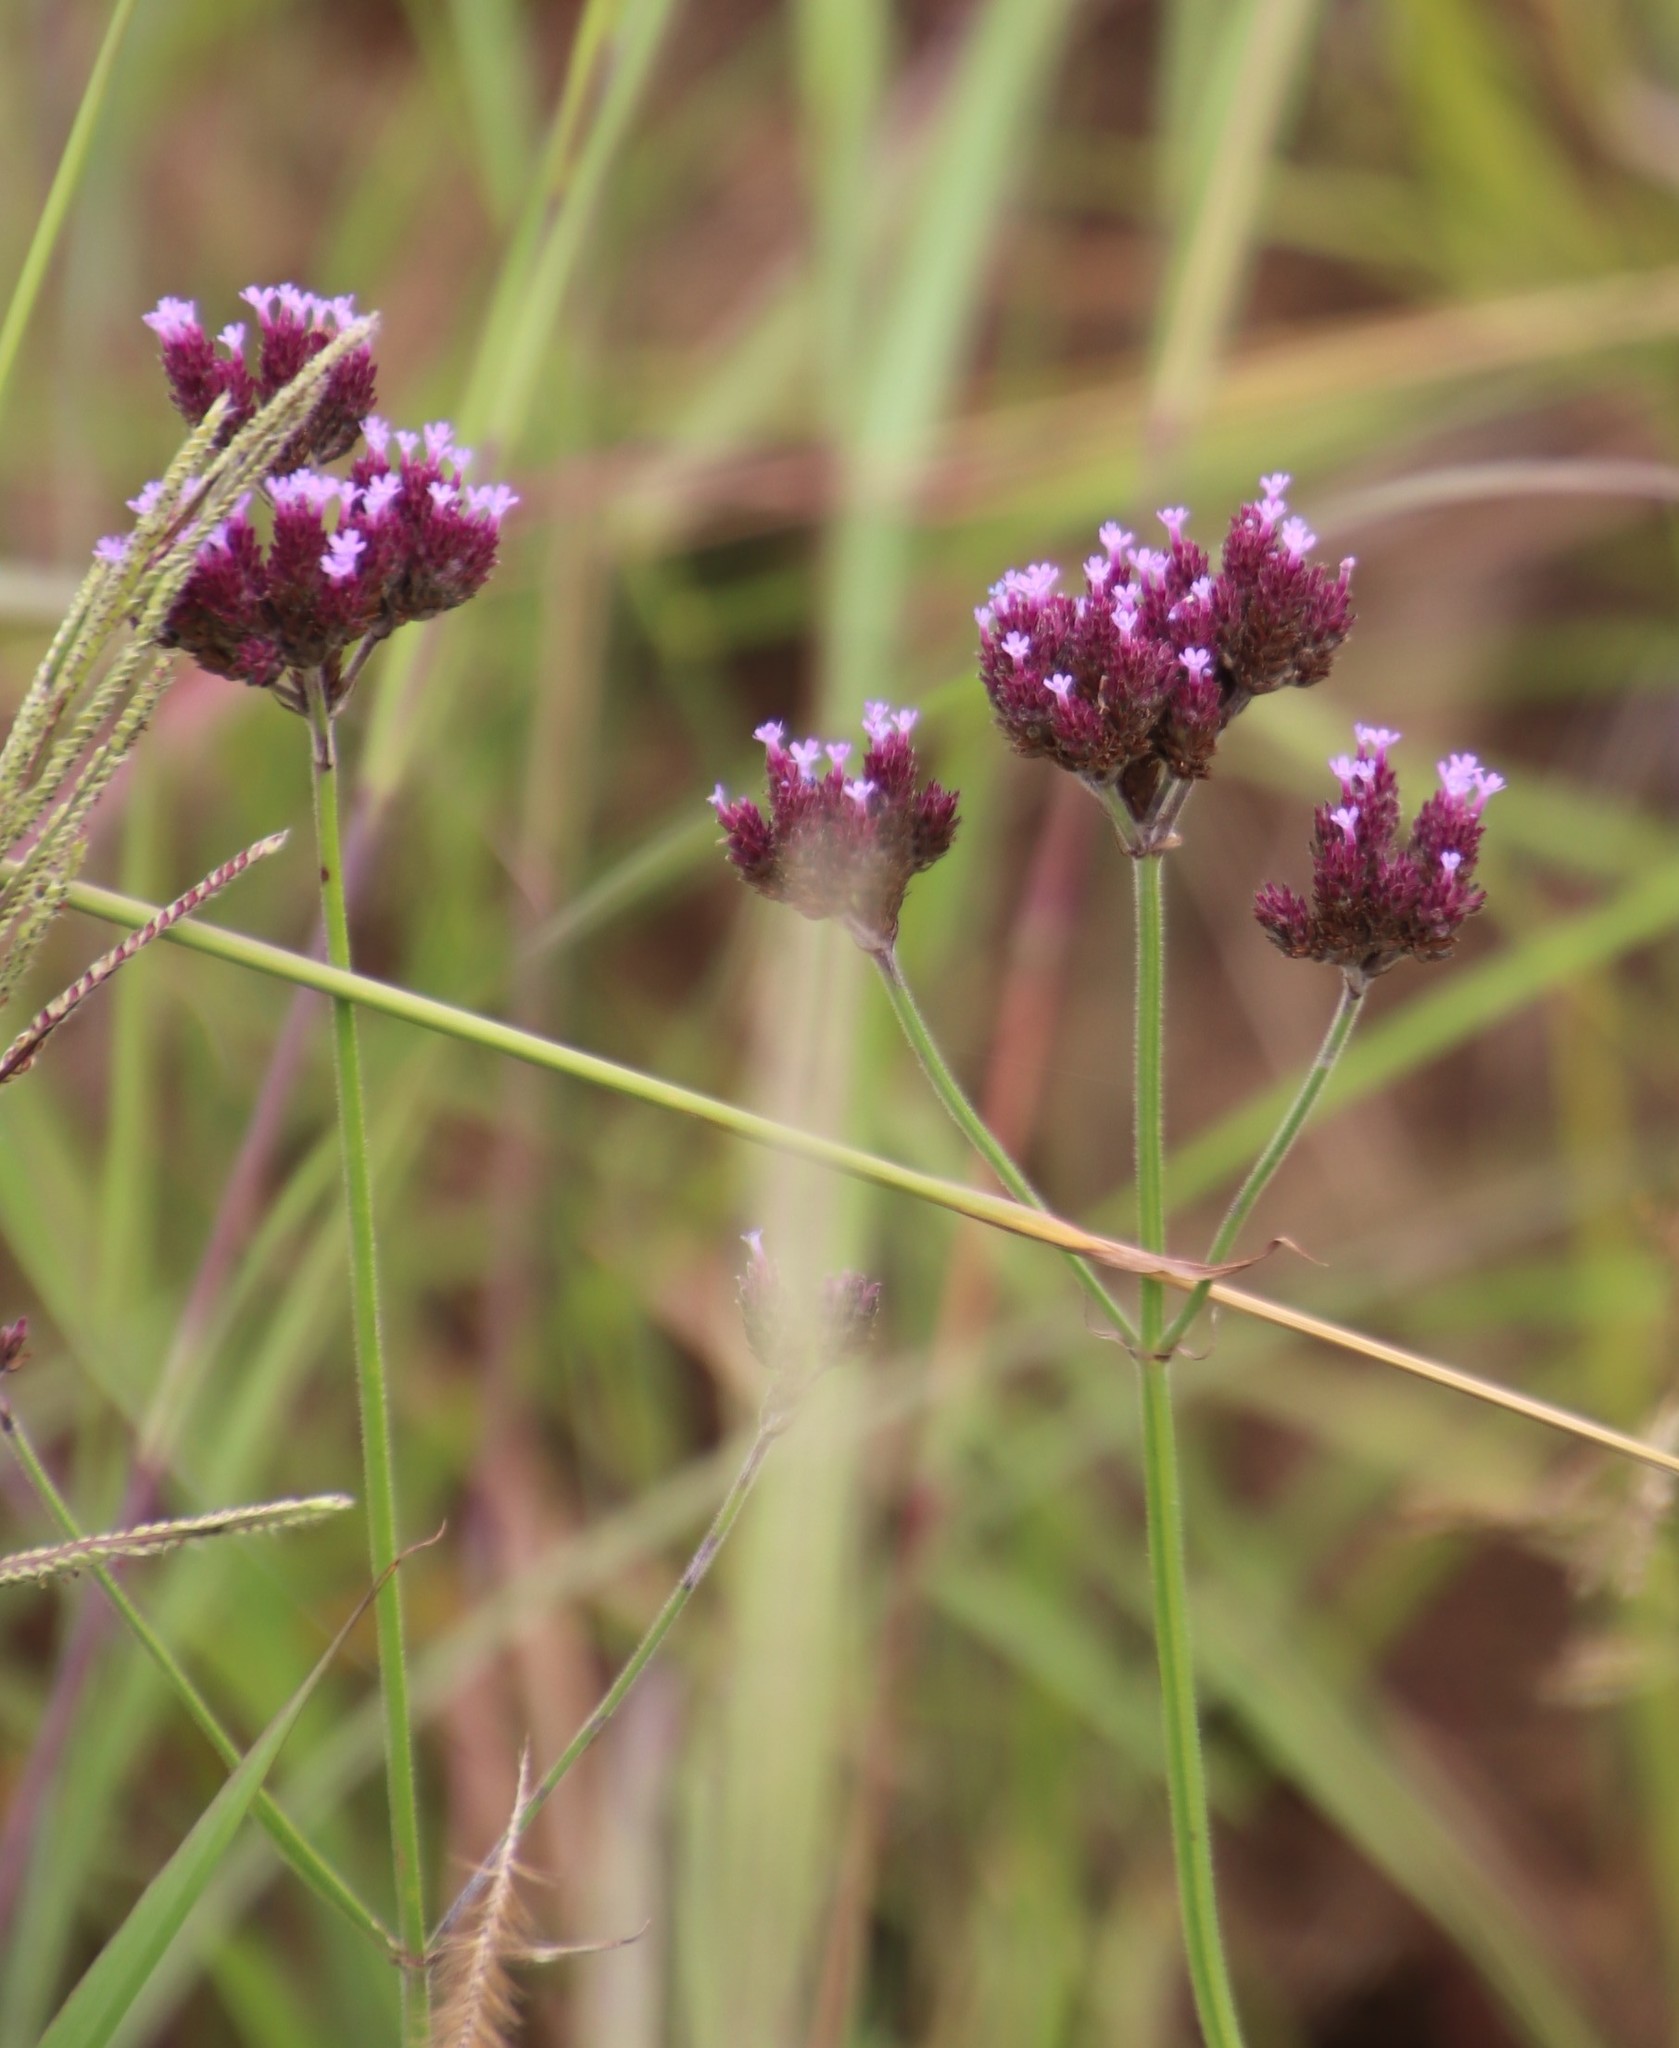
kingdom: Plantae
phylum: Tracheophyta
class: Magnoliopsida
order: Lamiales
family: Verbenaceae
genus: Verbena
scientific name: Verbena bonariensis
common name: Purpletop vervain
